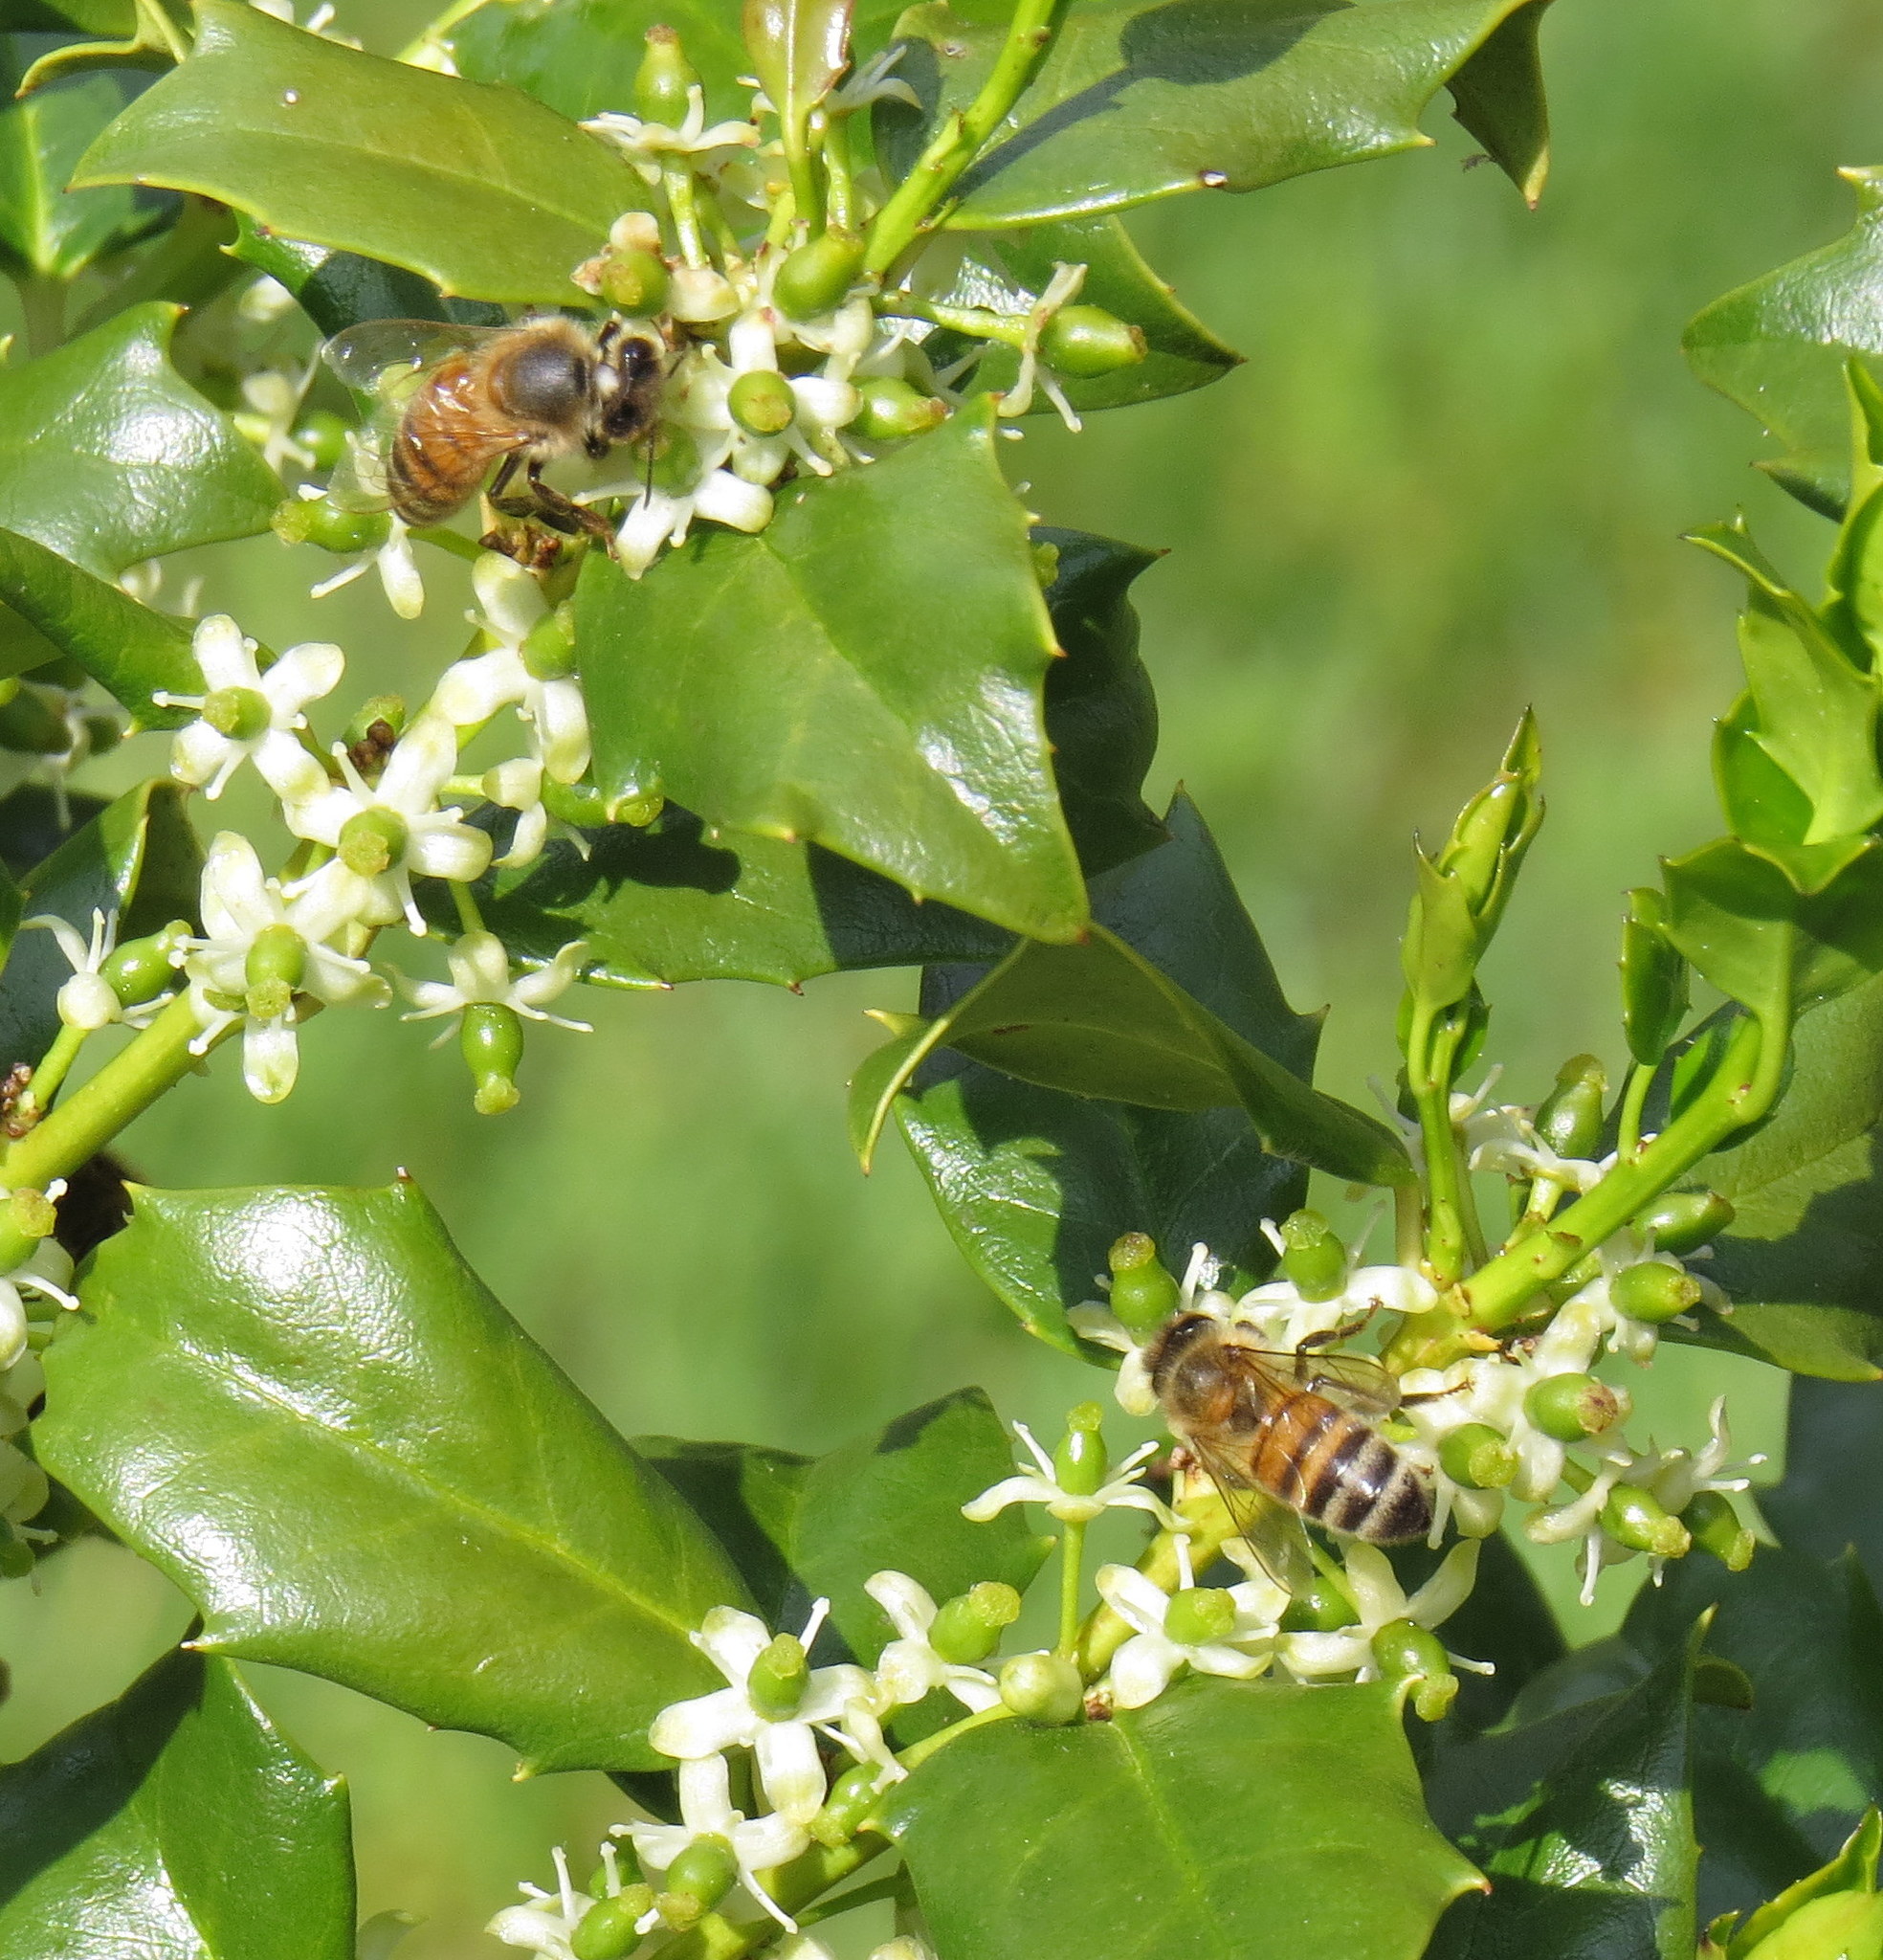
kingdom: Animalia
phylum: Arthropoda
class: Insecta
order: Hymenoptera
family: Apidae
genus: Apis
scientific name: Apis mellifera
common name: Honey bee
